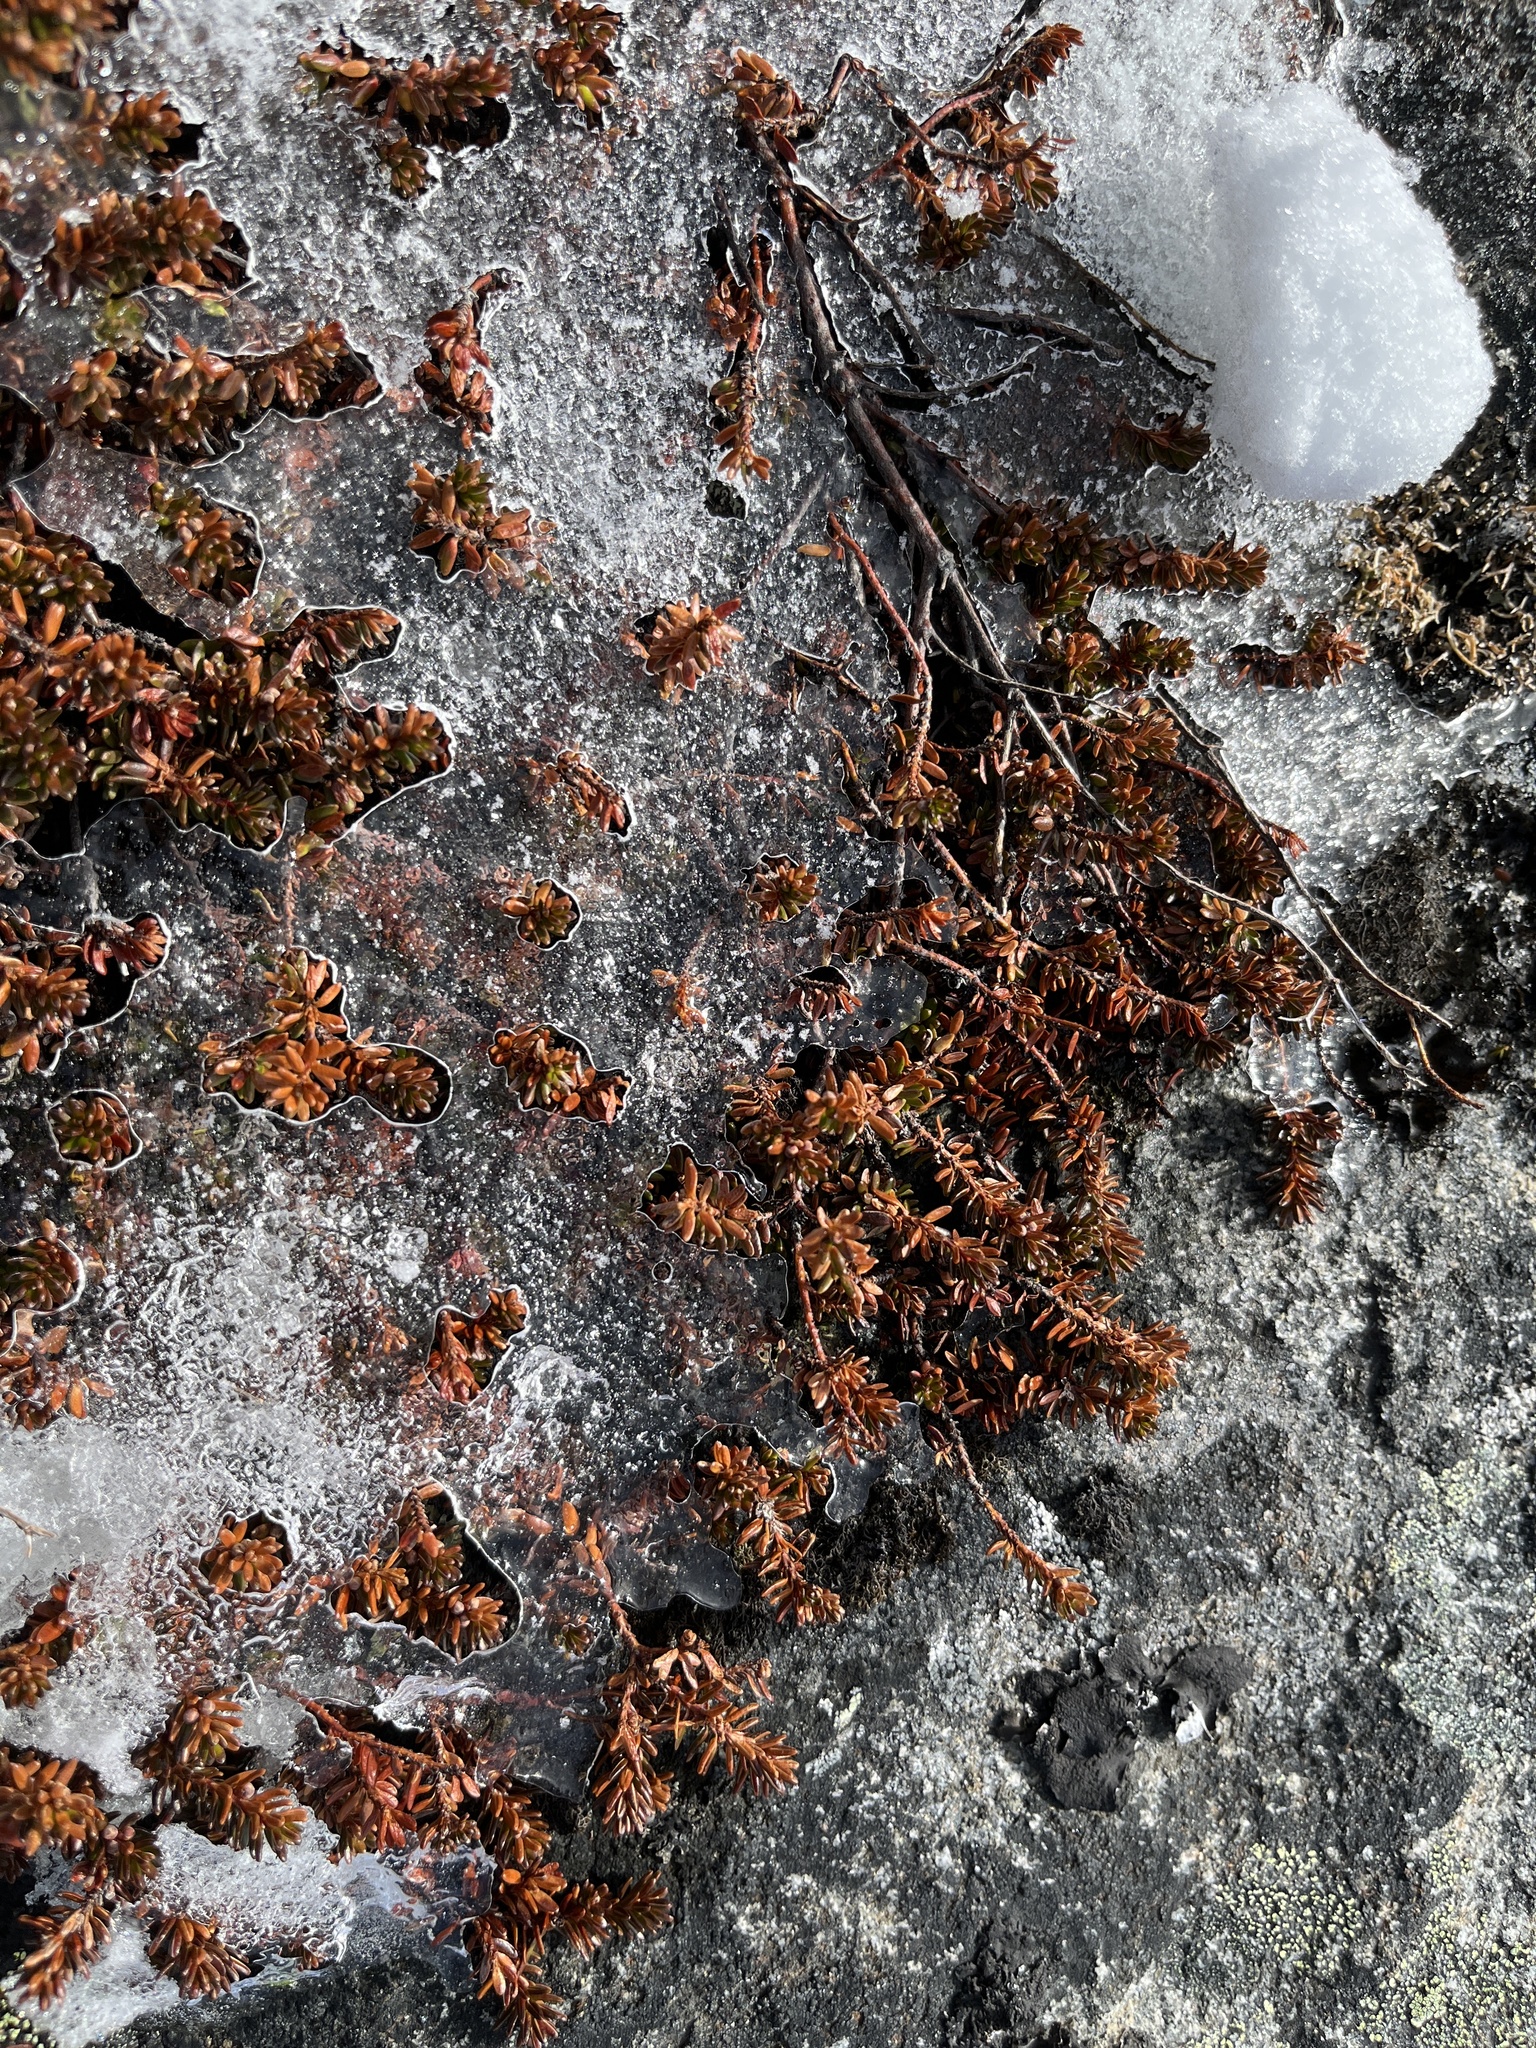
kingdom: Plantae
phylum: Tracheophyta
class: Magnoliopsida
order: Ericales
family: Ericaceae
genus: Empetrum
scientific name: Empetrum hermaphroditum
